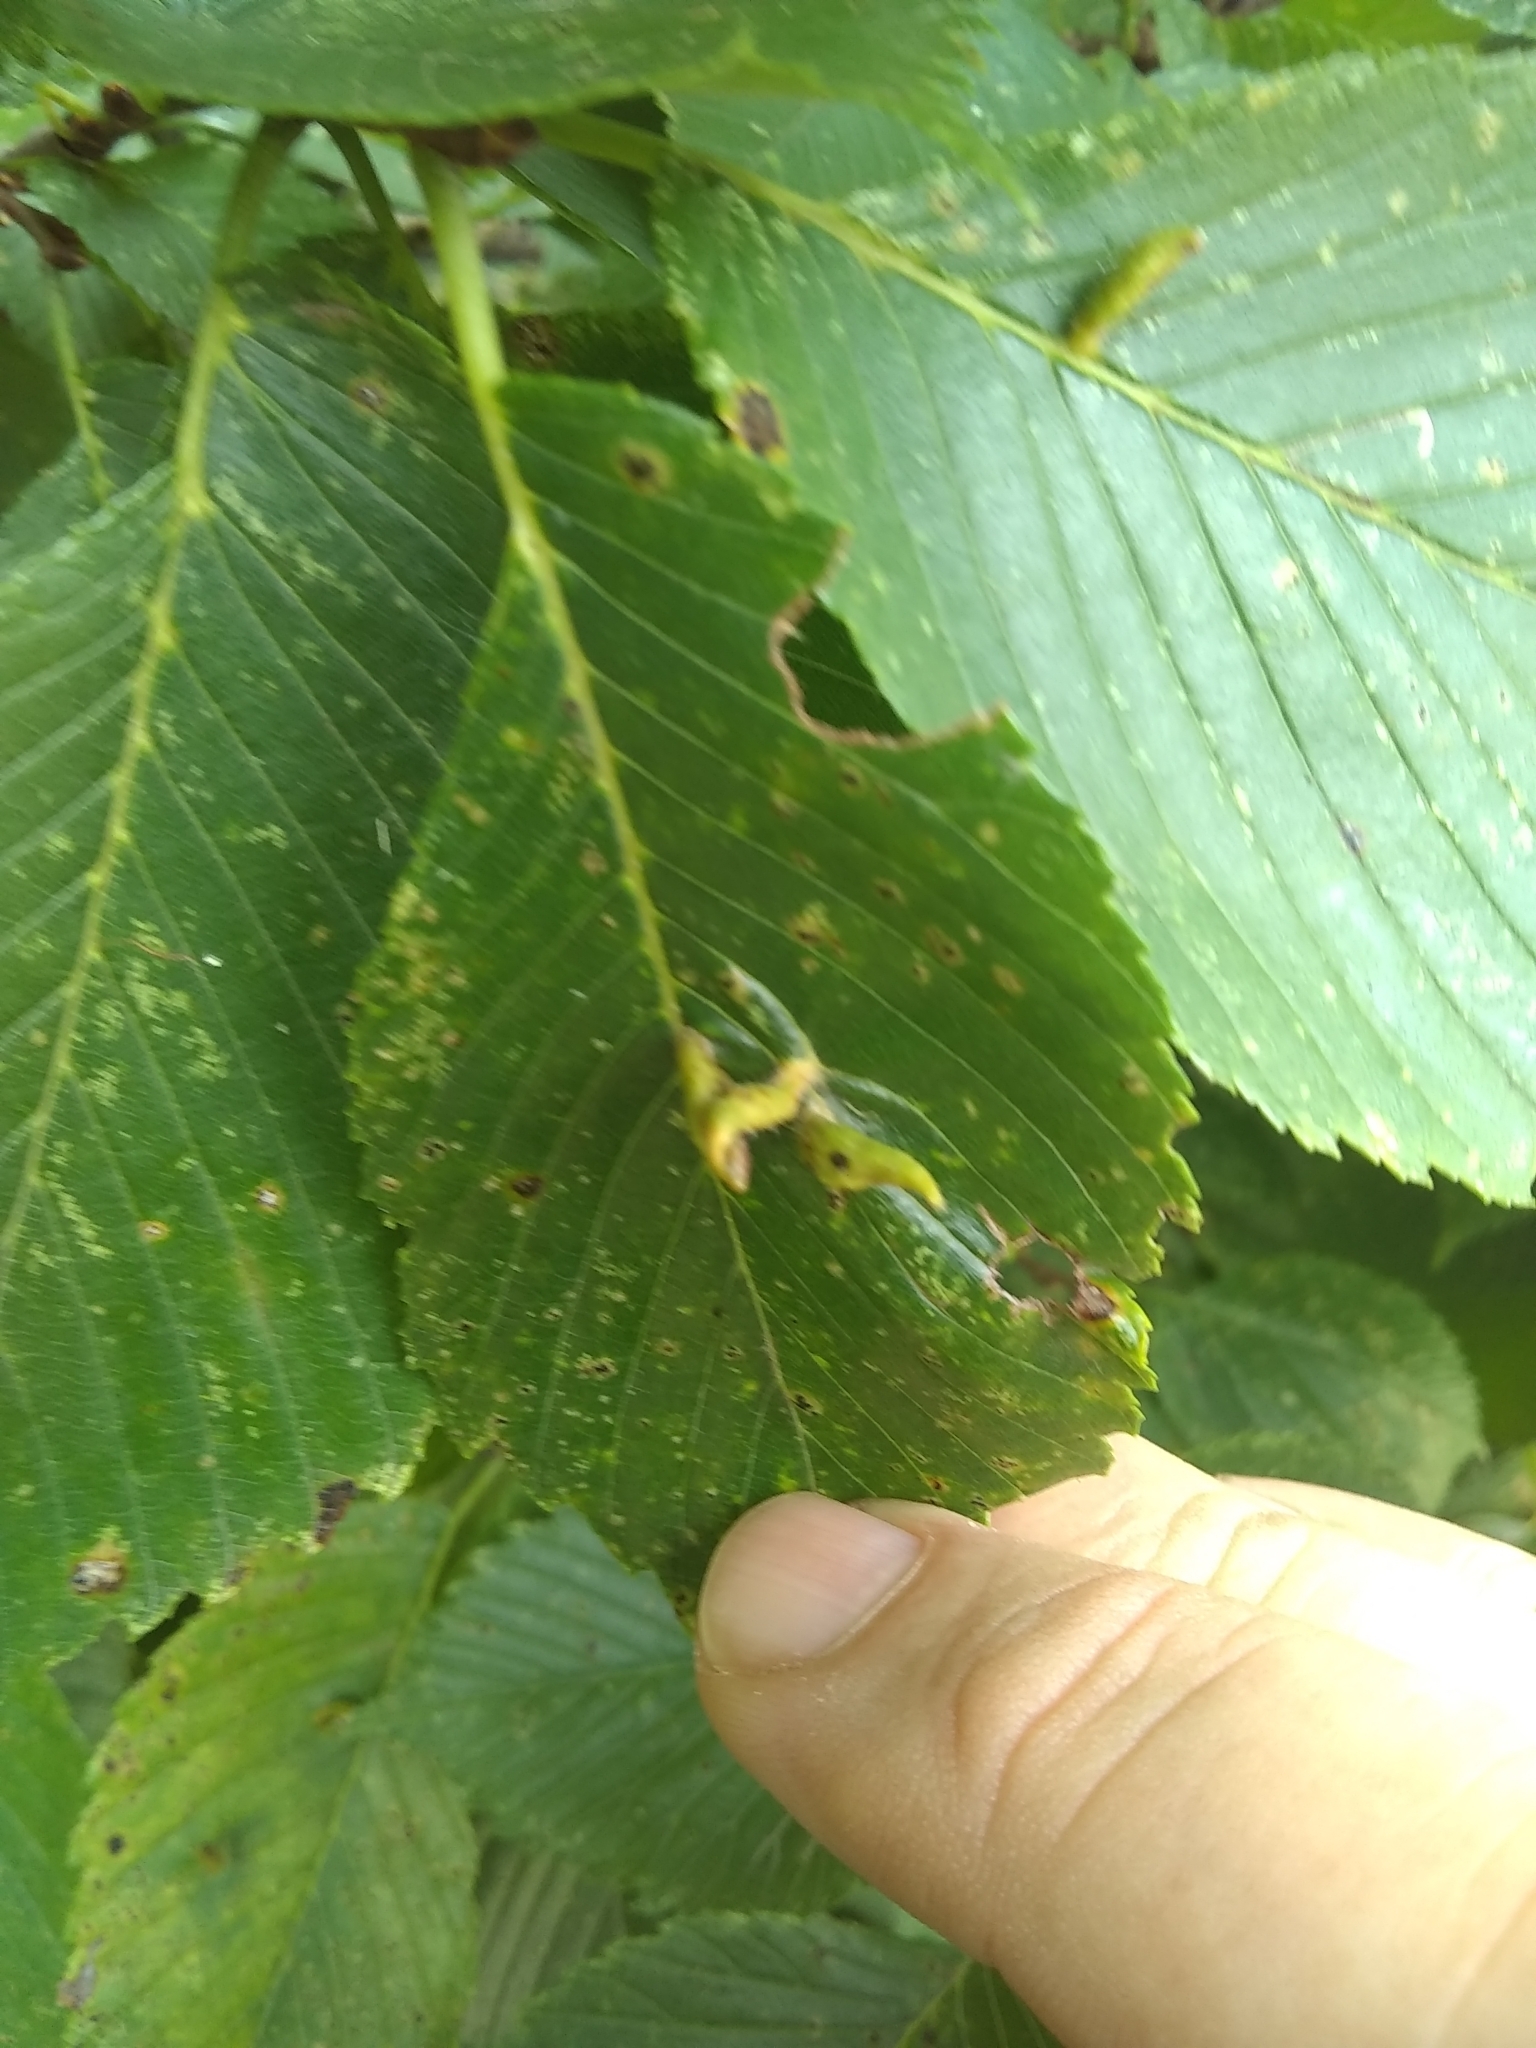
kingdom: Animalia
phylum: Arthropoda
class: Arachnida
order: Trombidiformes
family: Eriophyidae
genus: Aceria
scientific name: Aceria
